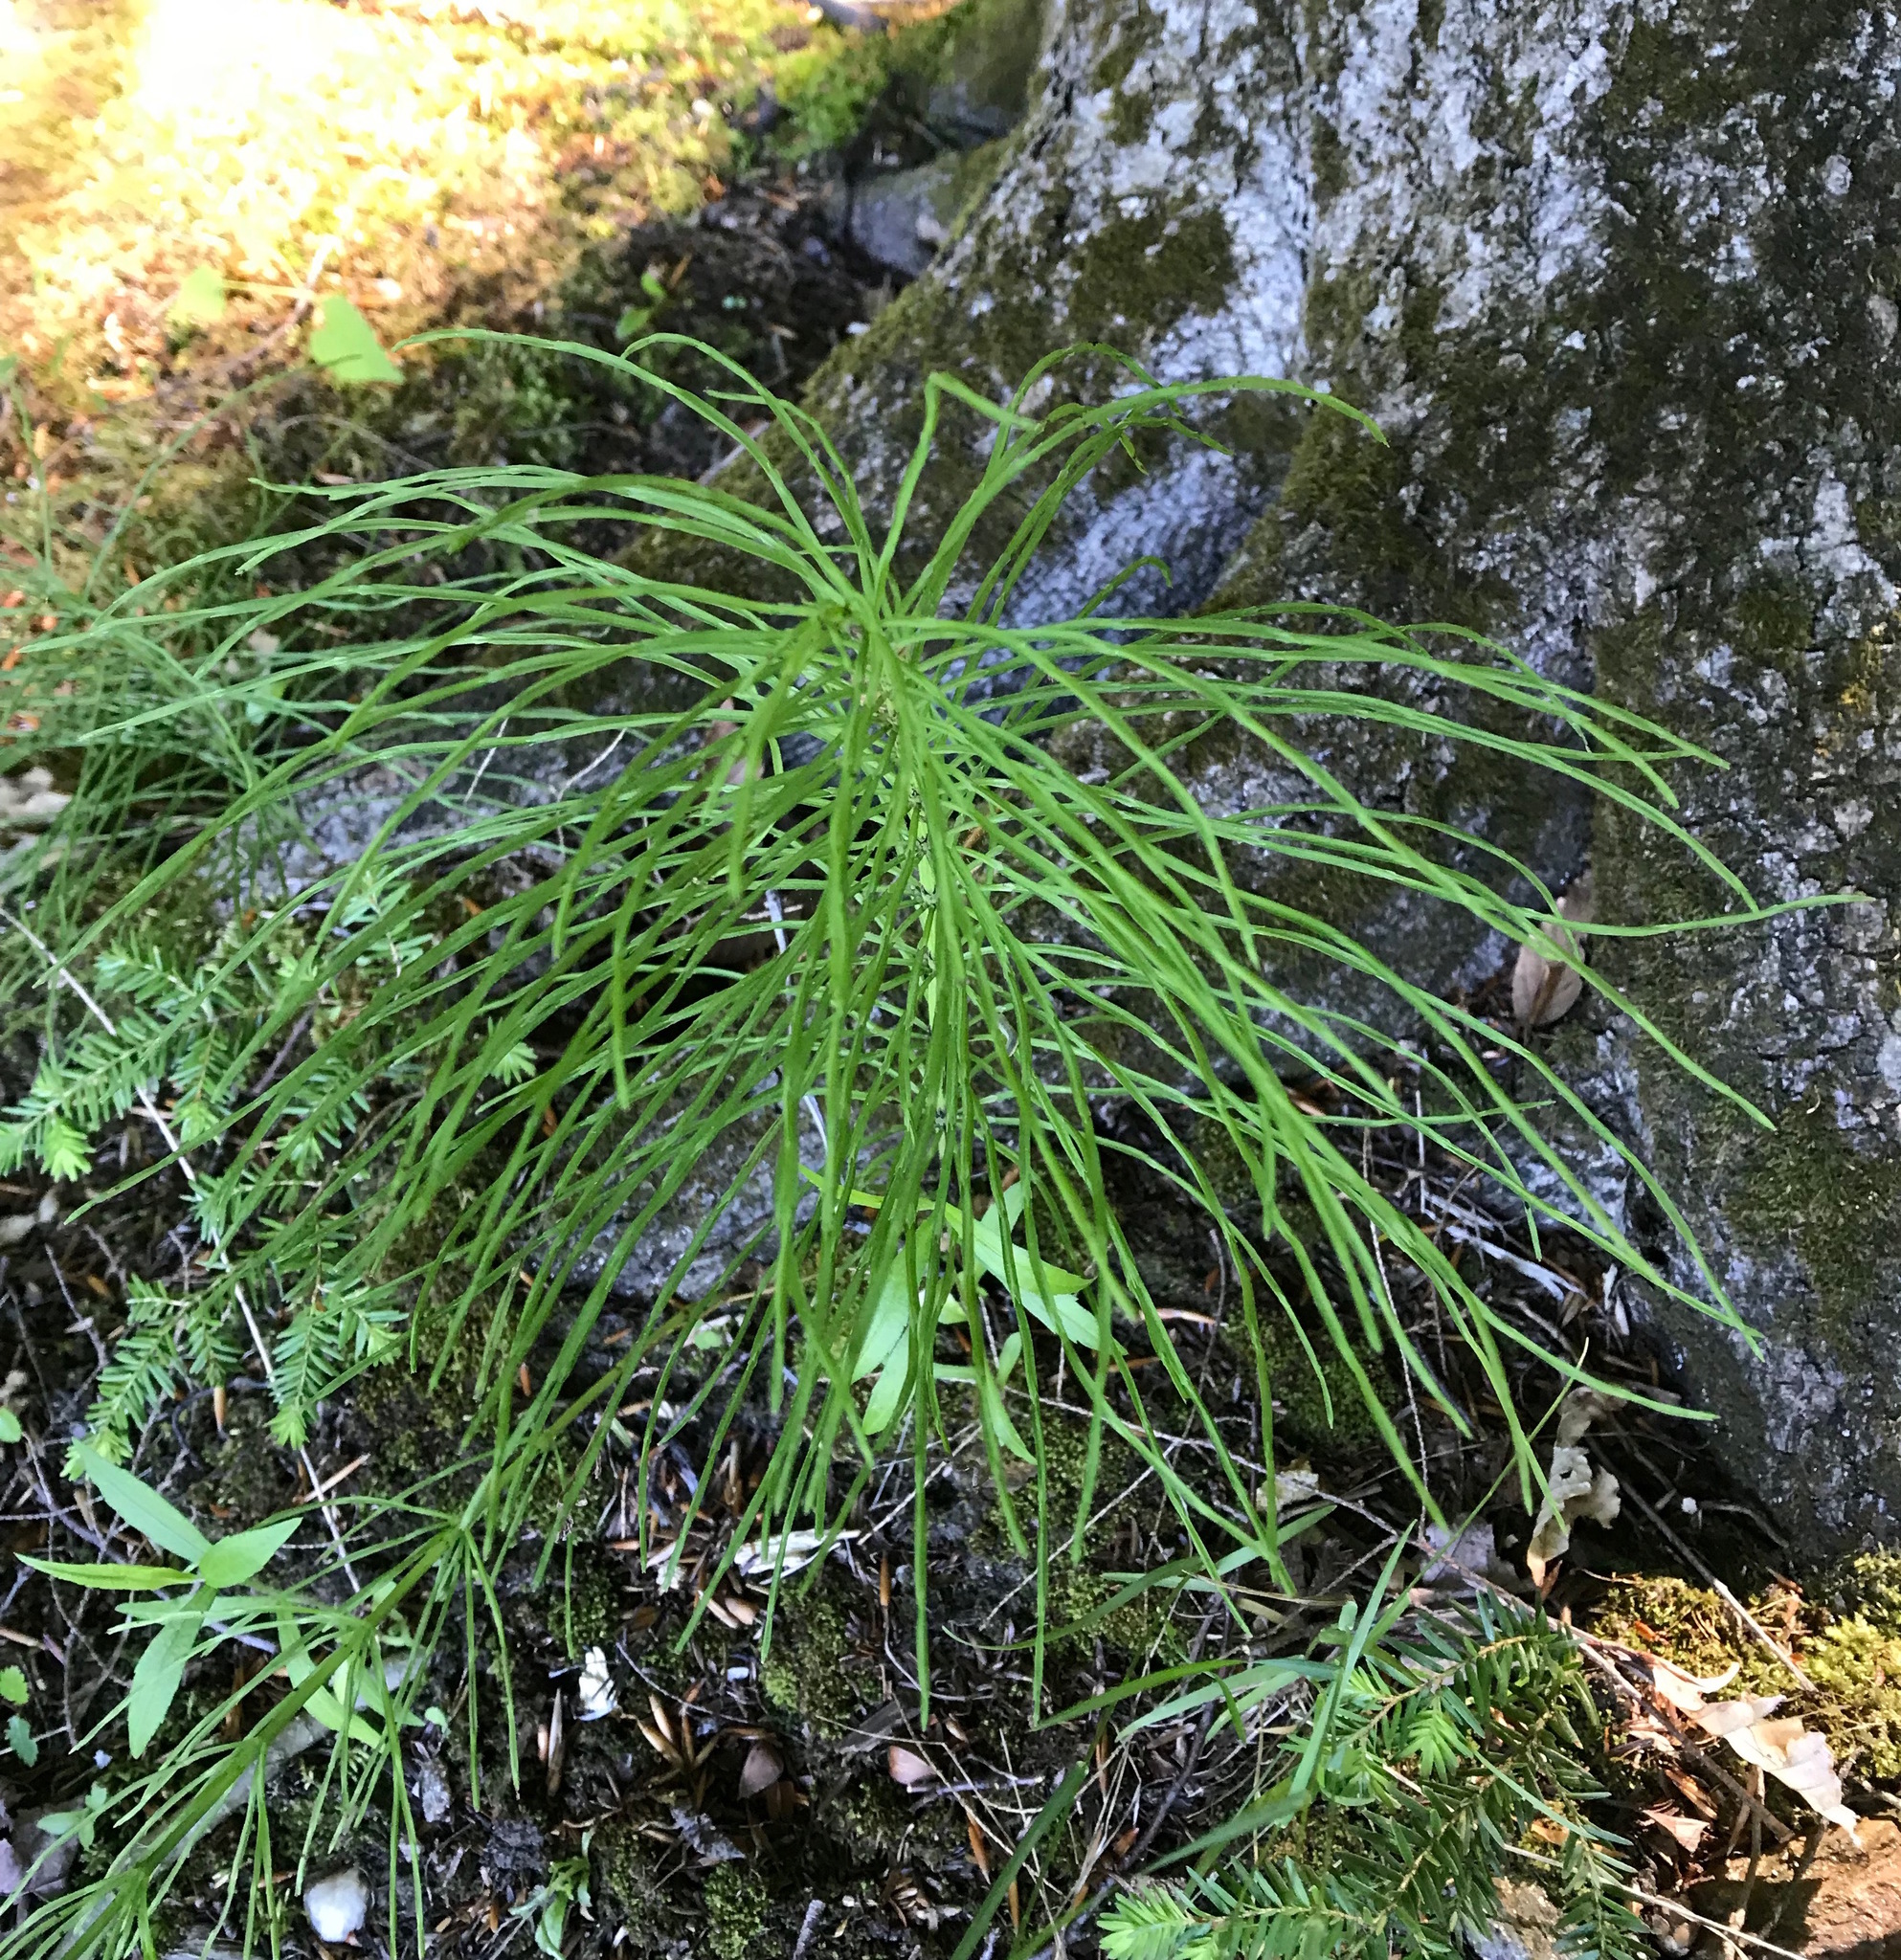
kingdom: Plantae
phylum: Tracheophyta
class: Polypodiopsida
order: Equisetales
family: Equisetaceae
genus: Equisetum
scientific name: Equisetum arvense
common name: Field horsetail
